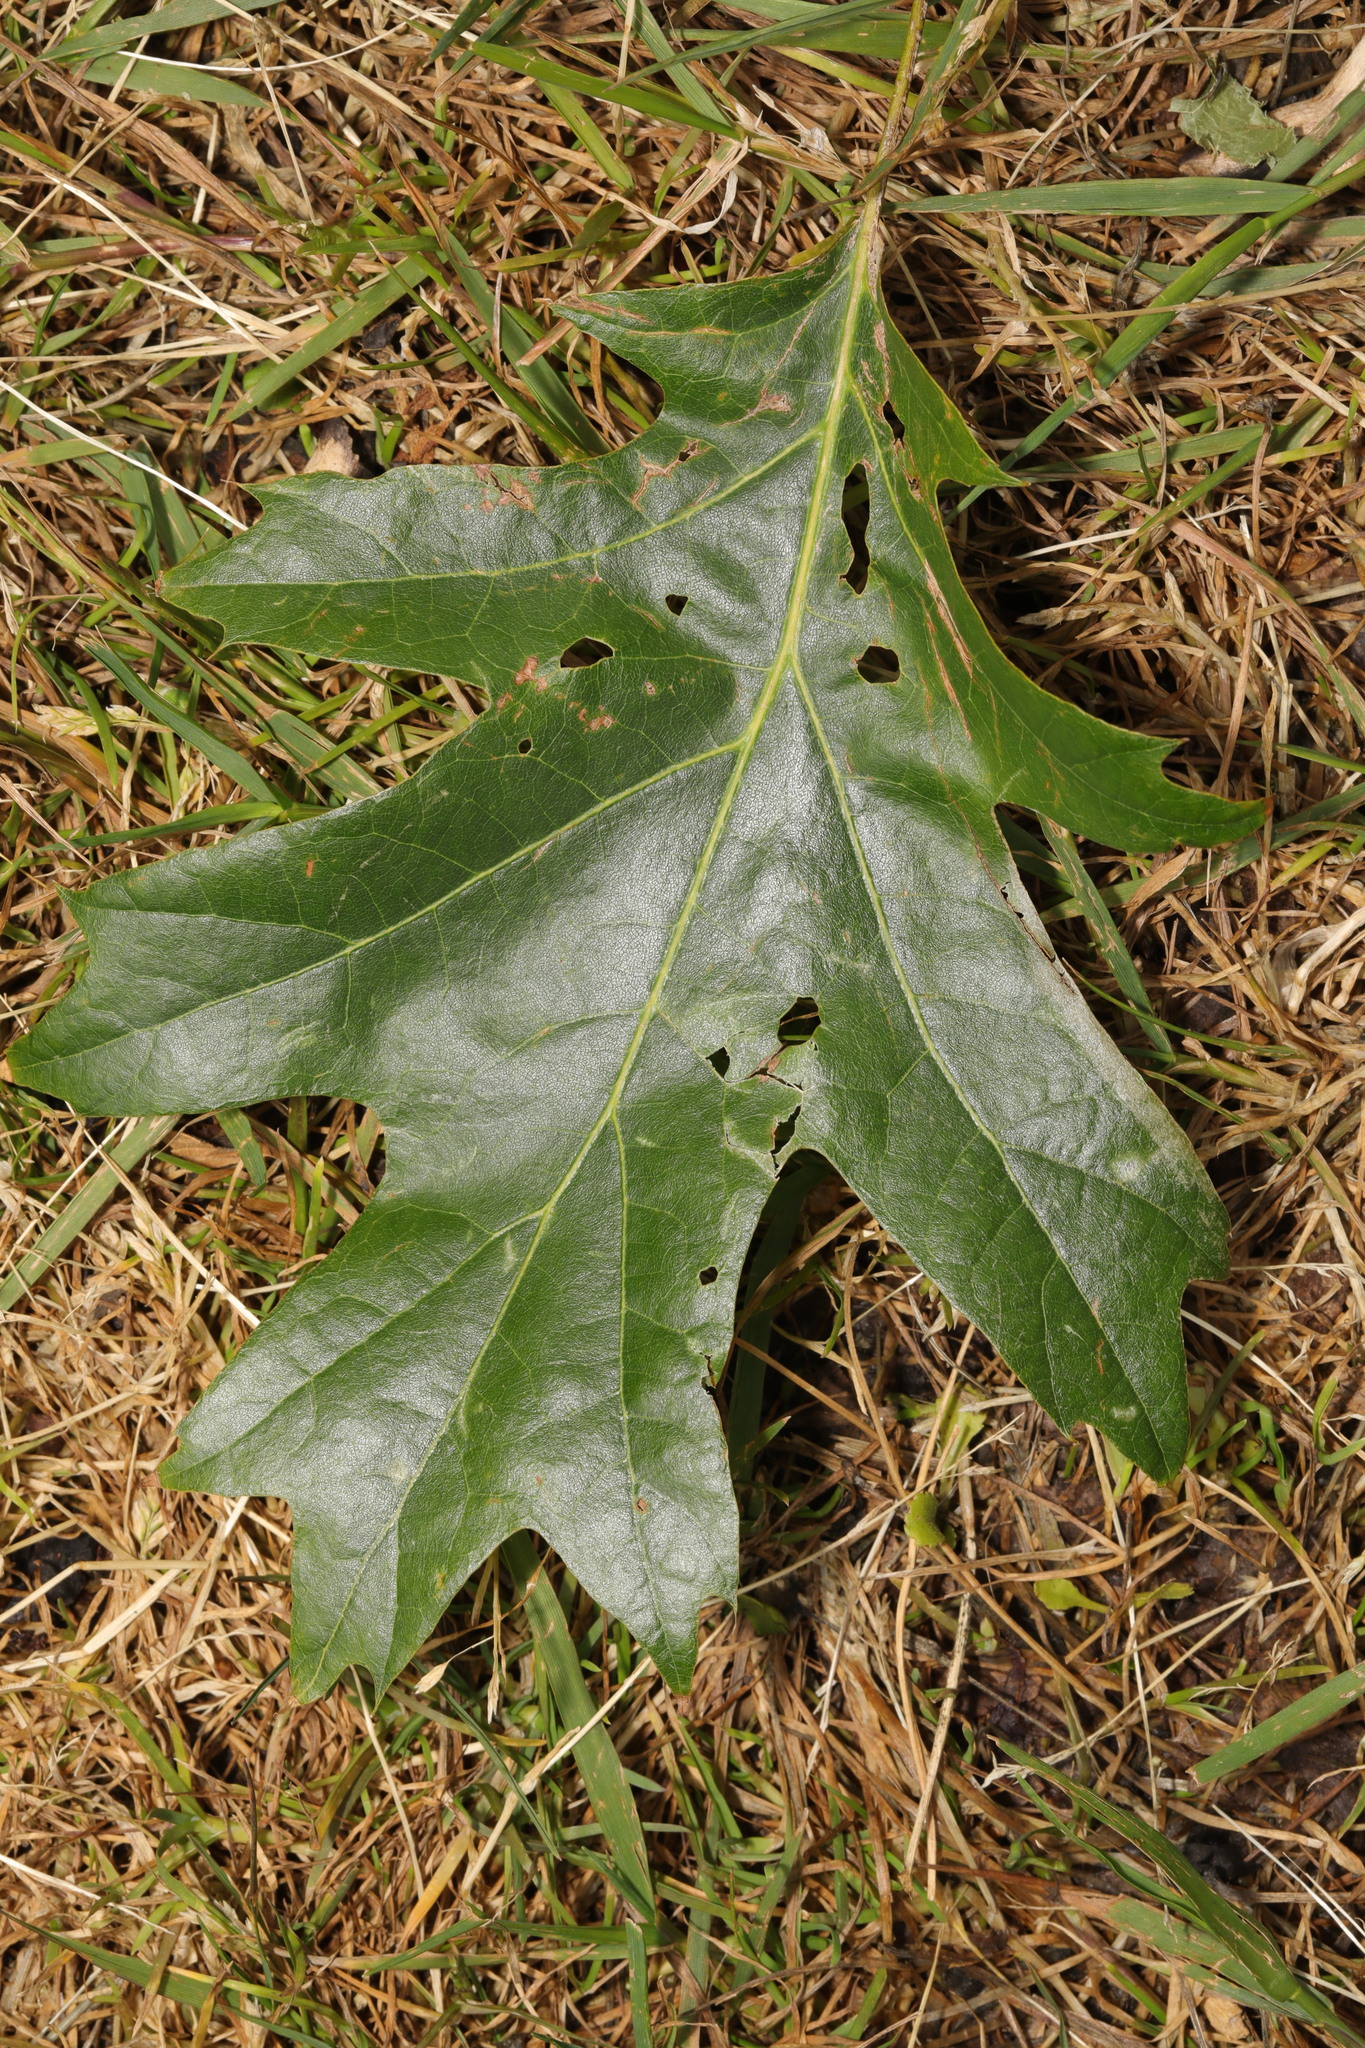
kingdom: Plantae
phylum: Tracheophyta
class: Magnoliopsida
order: Fagales
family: Fagaceae
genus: Quercus
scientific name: Quercus rubra
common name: Red oak
